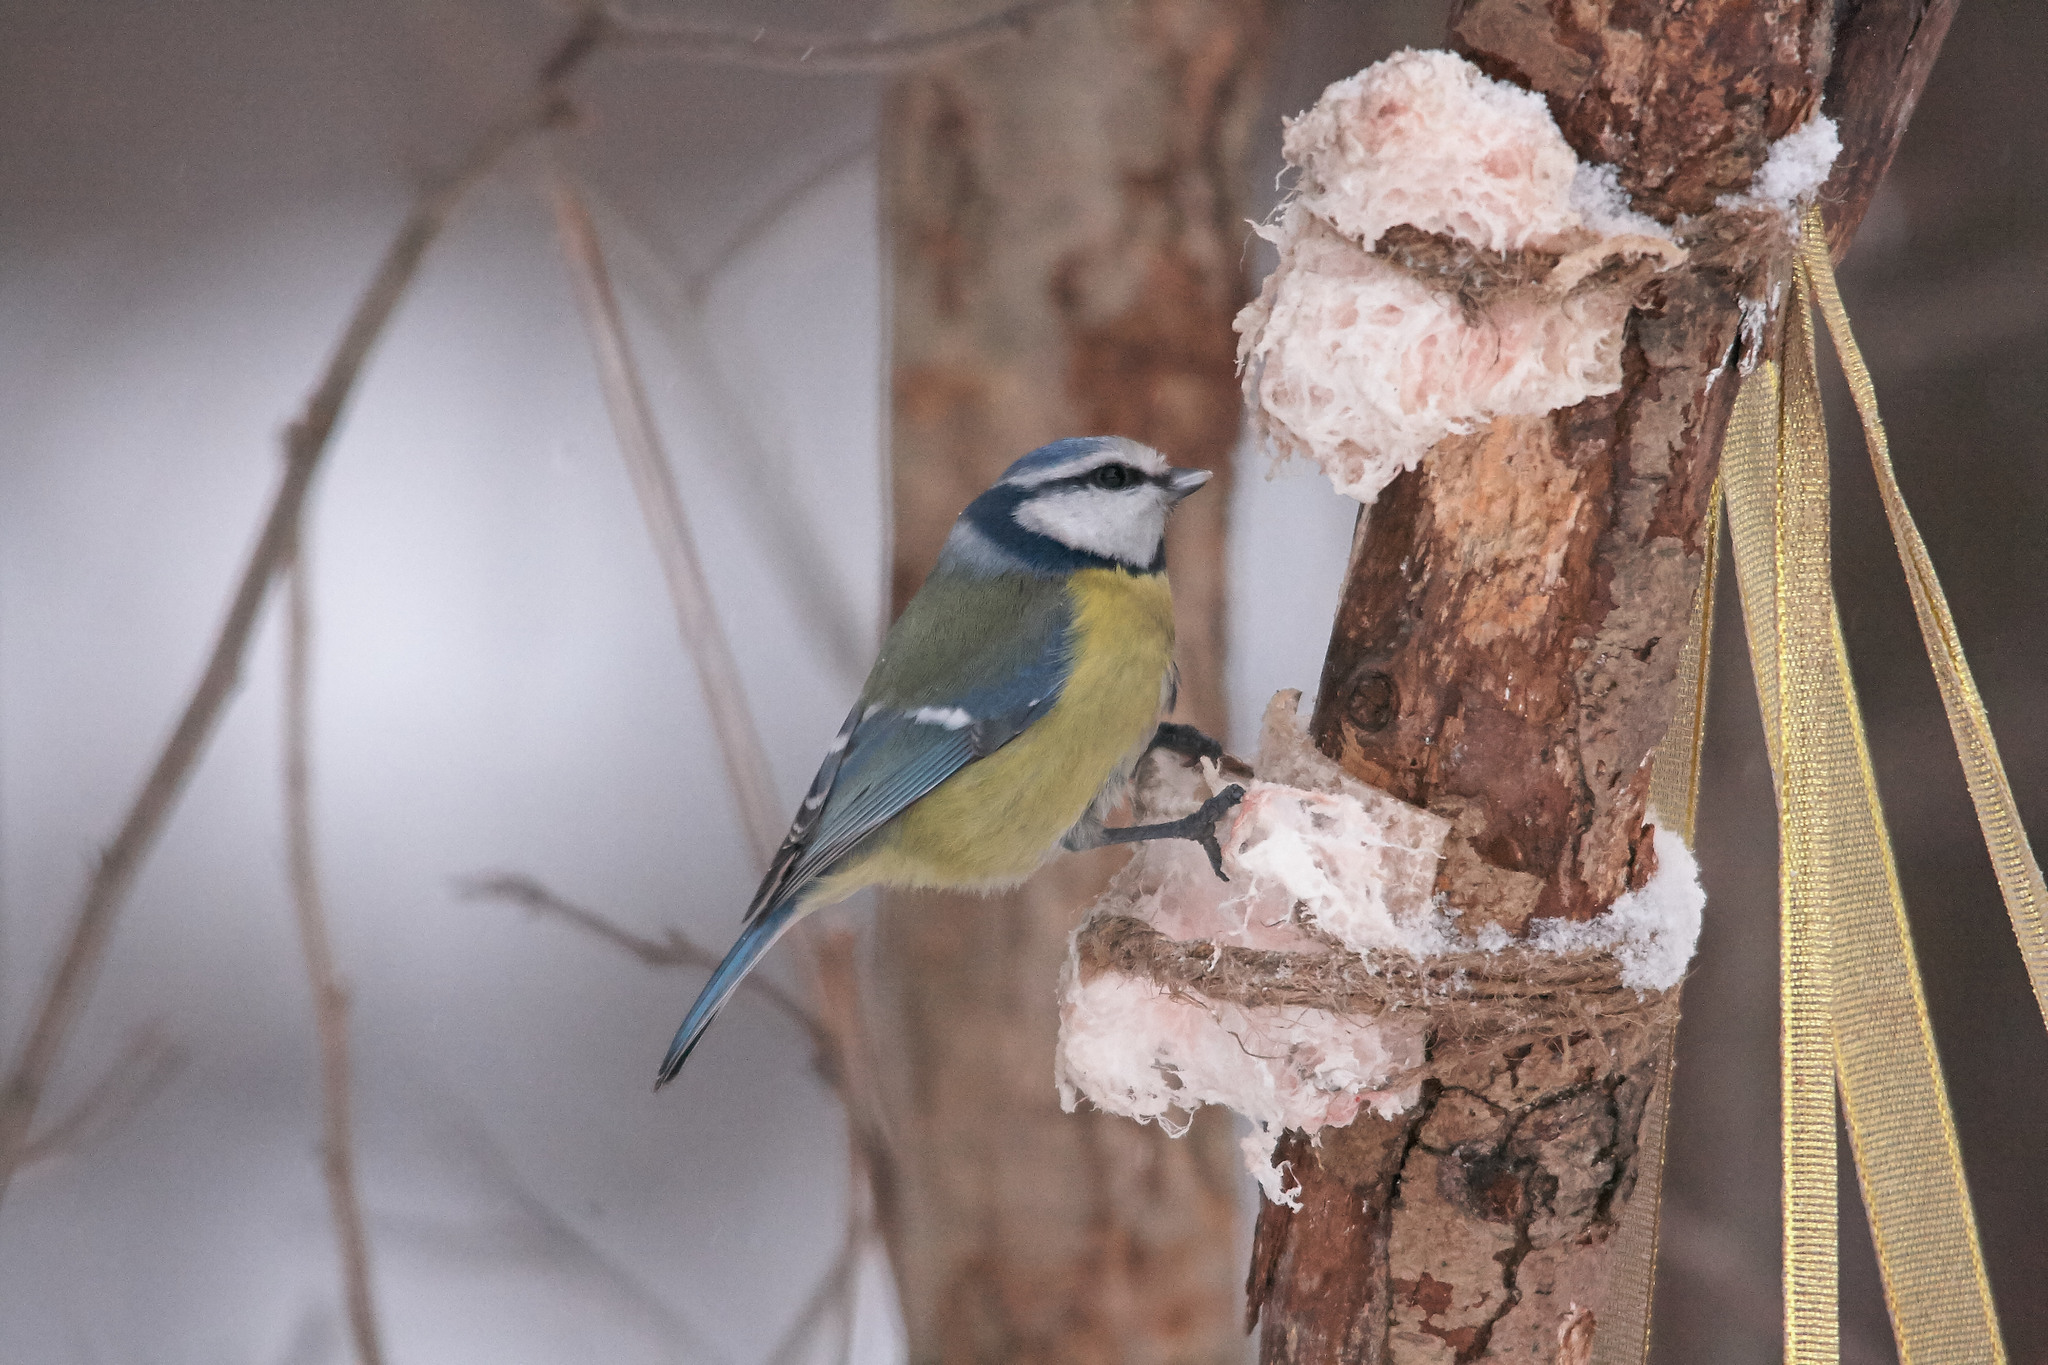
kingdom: Animalia
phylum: Chordata
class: Aves
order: Passeriformes
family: Paridae
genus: Cyanistes
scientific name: Cyanistes caeruleus
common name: Eurasian blue tit
